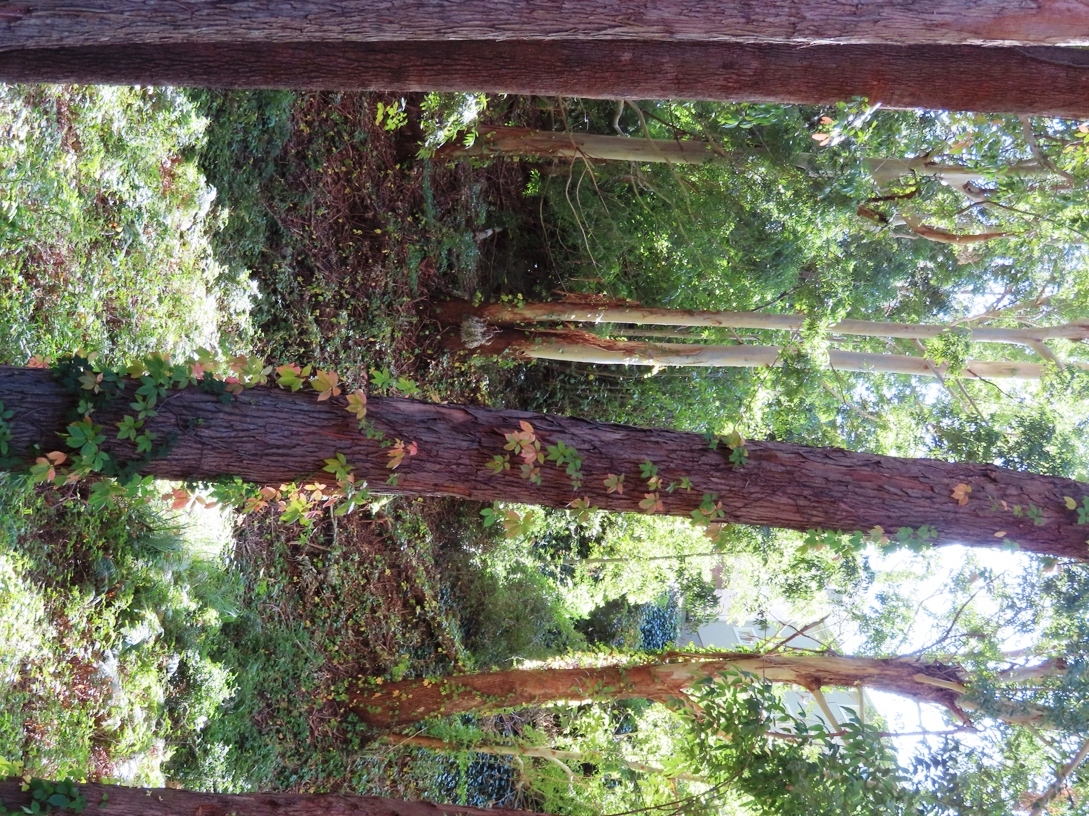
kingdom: Plantae
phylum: Tracheophyta
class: Magnoliopsida
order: Vitales
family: Vitaceae
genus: Parthenocissus
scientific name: Parthenocissus quinquefolia
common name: Virginia-creeper
